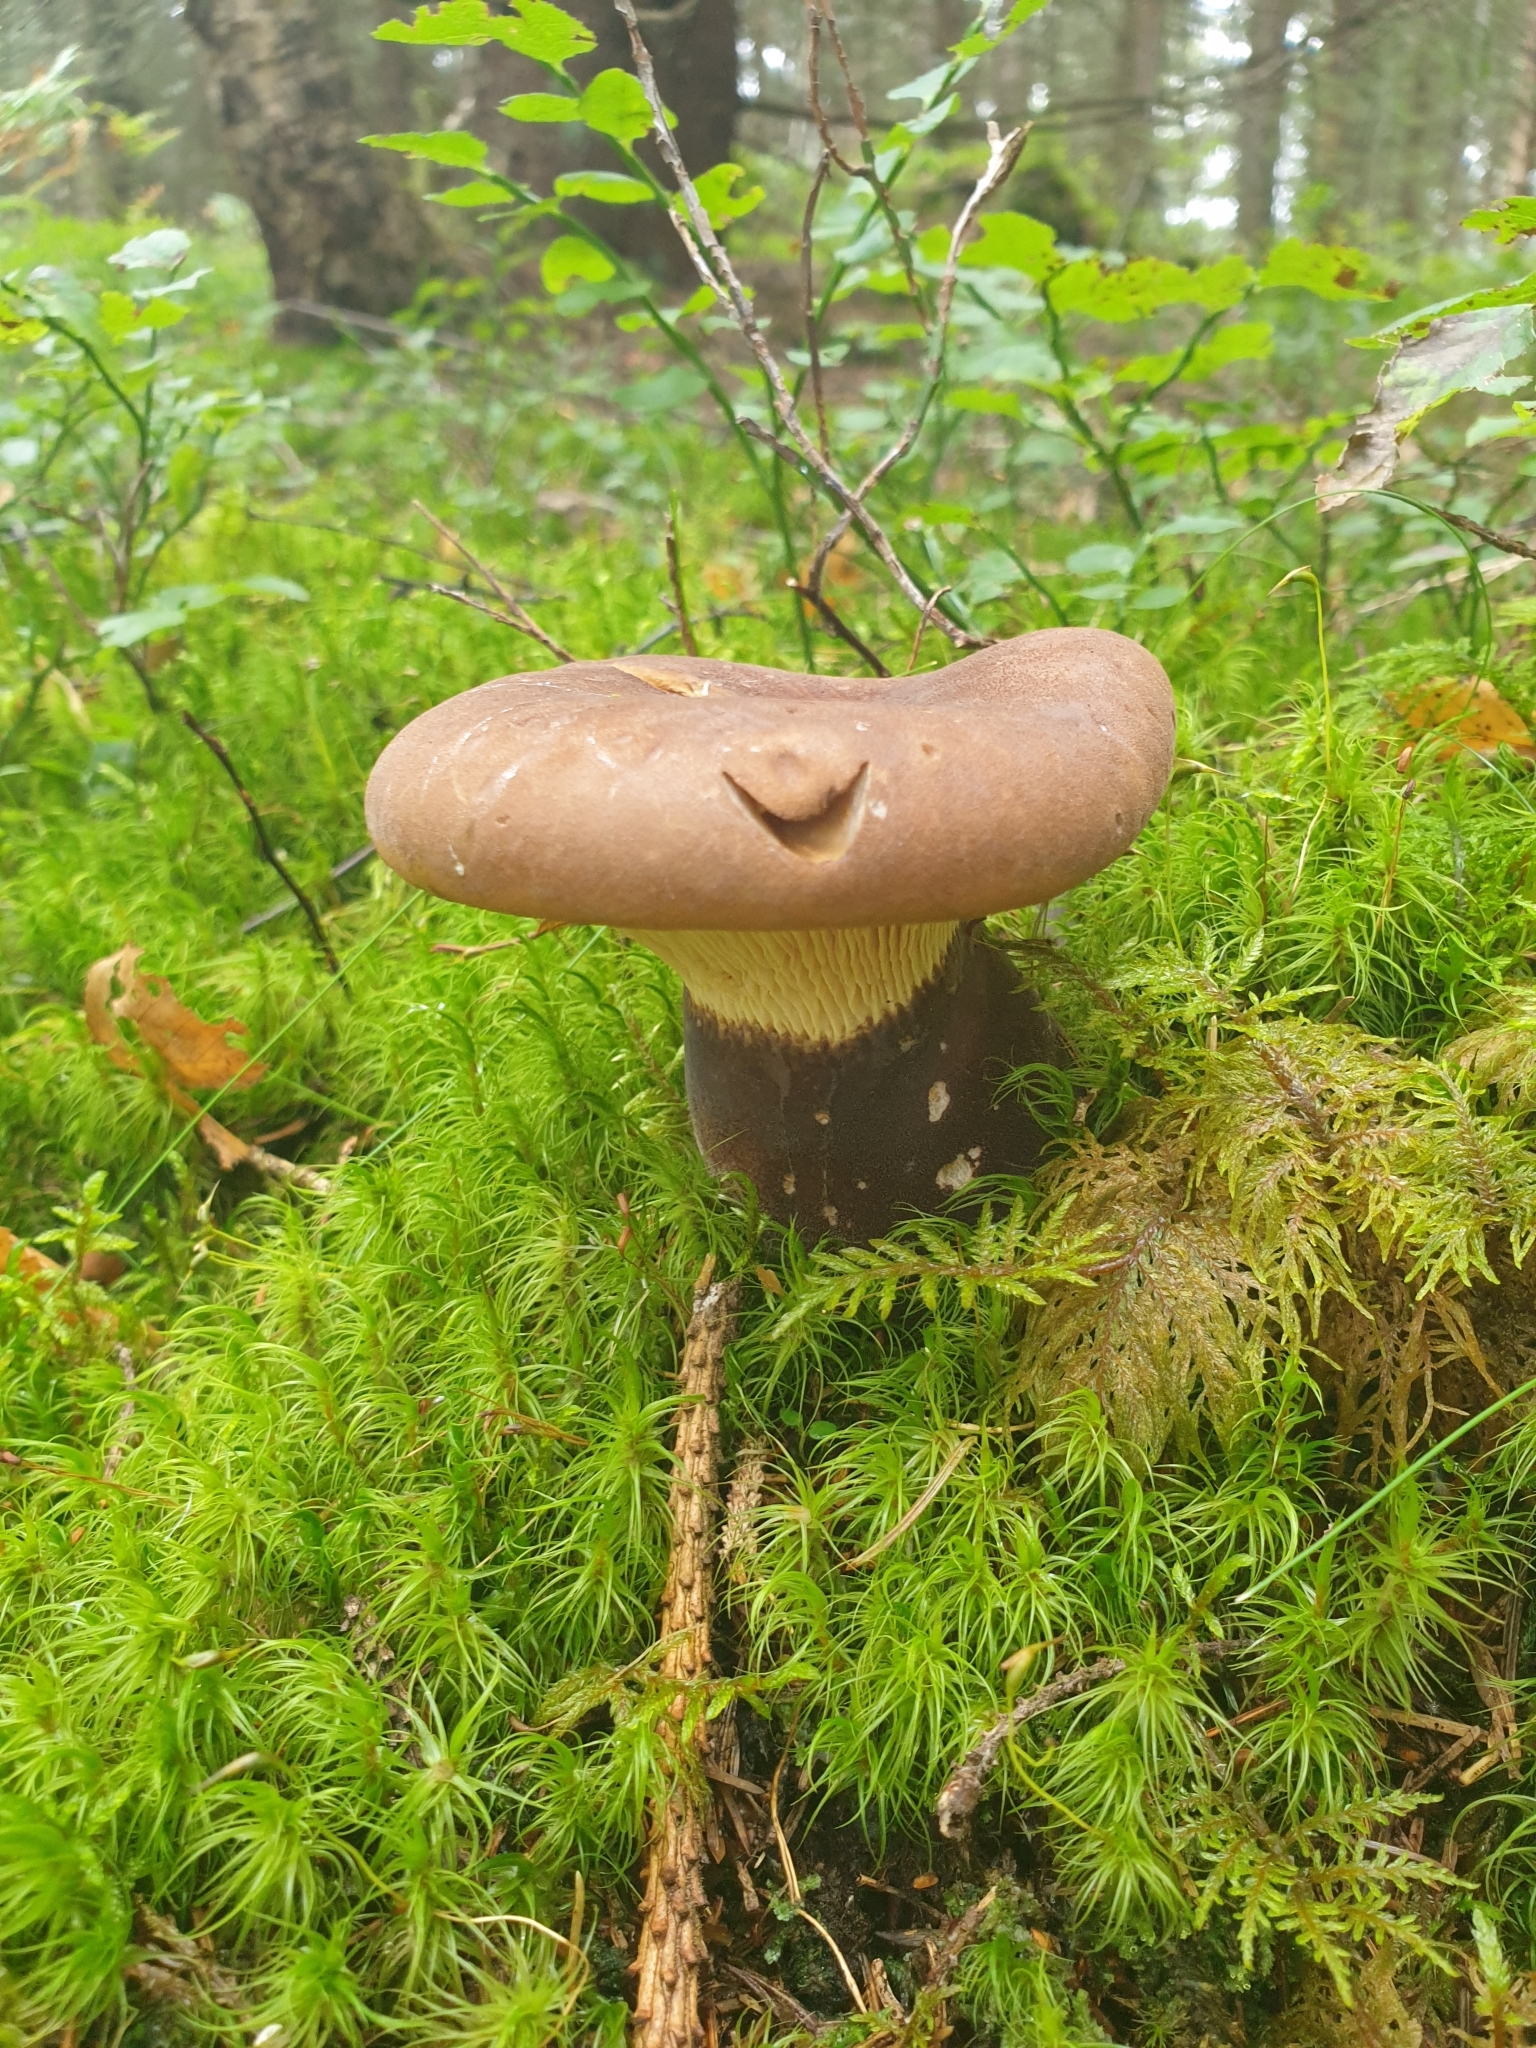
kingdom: Fungi
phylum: Basidiomycota
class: Agaricomycetes
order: Boletales
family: Tapinellaceae
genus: Tapinella
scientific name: Tapinella atrotomentosa
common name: Velvet rollrim
